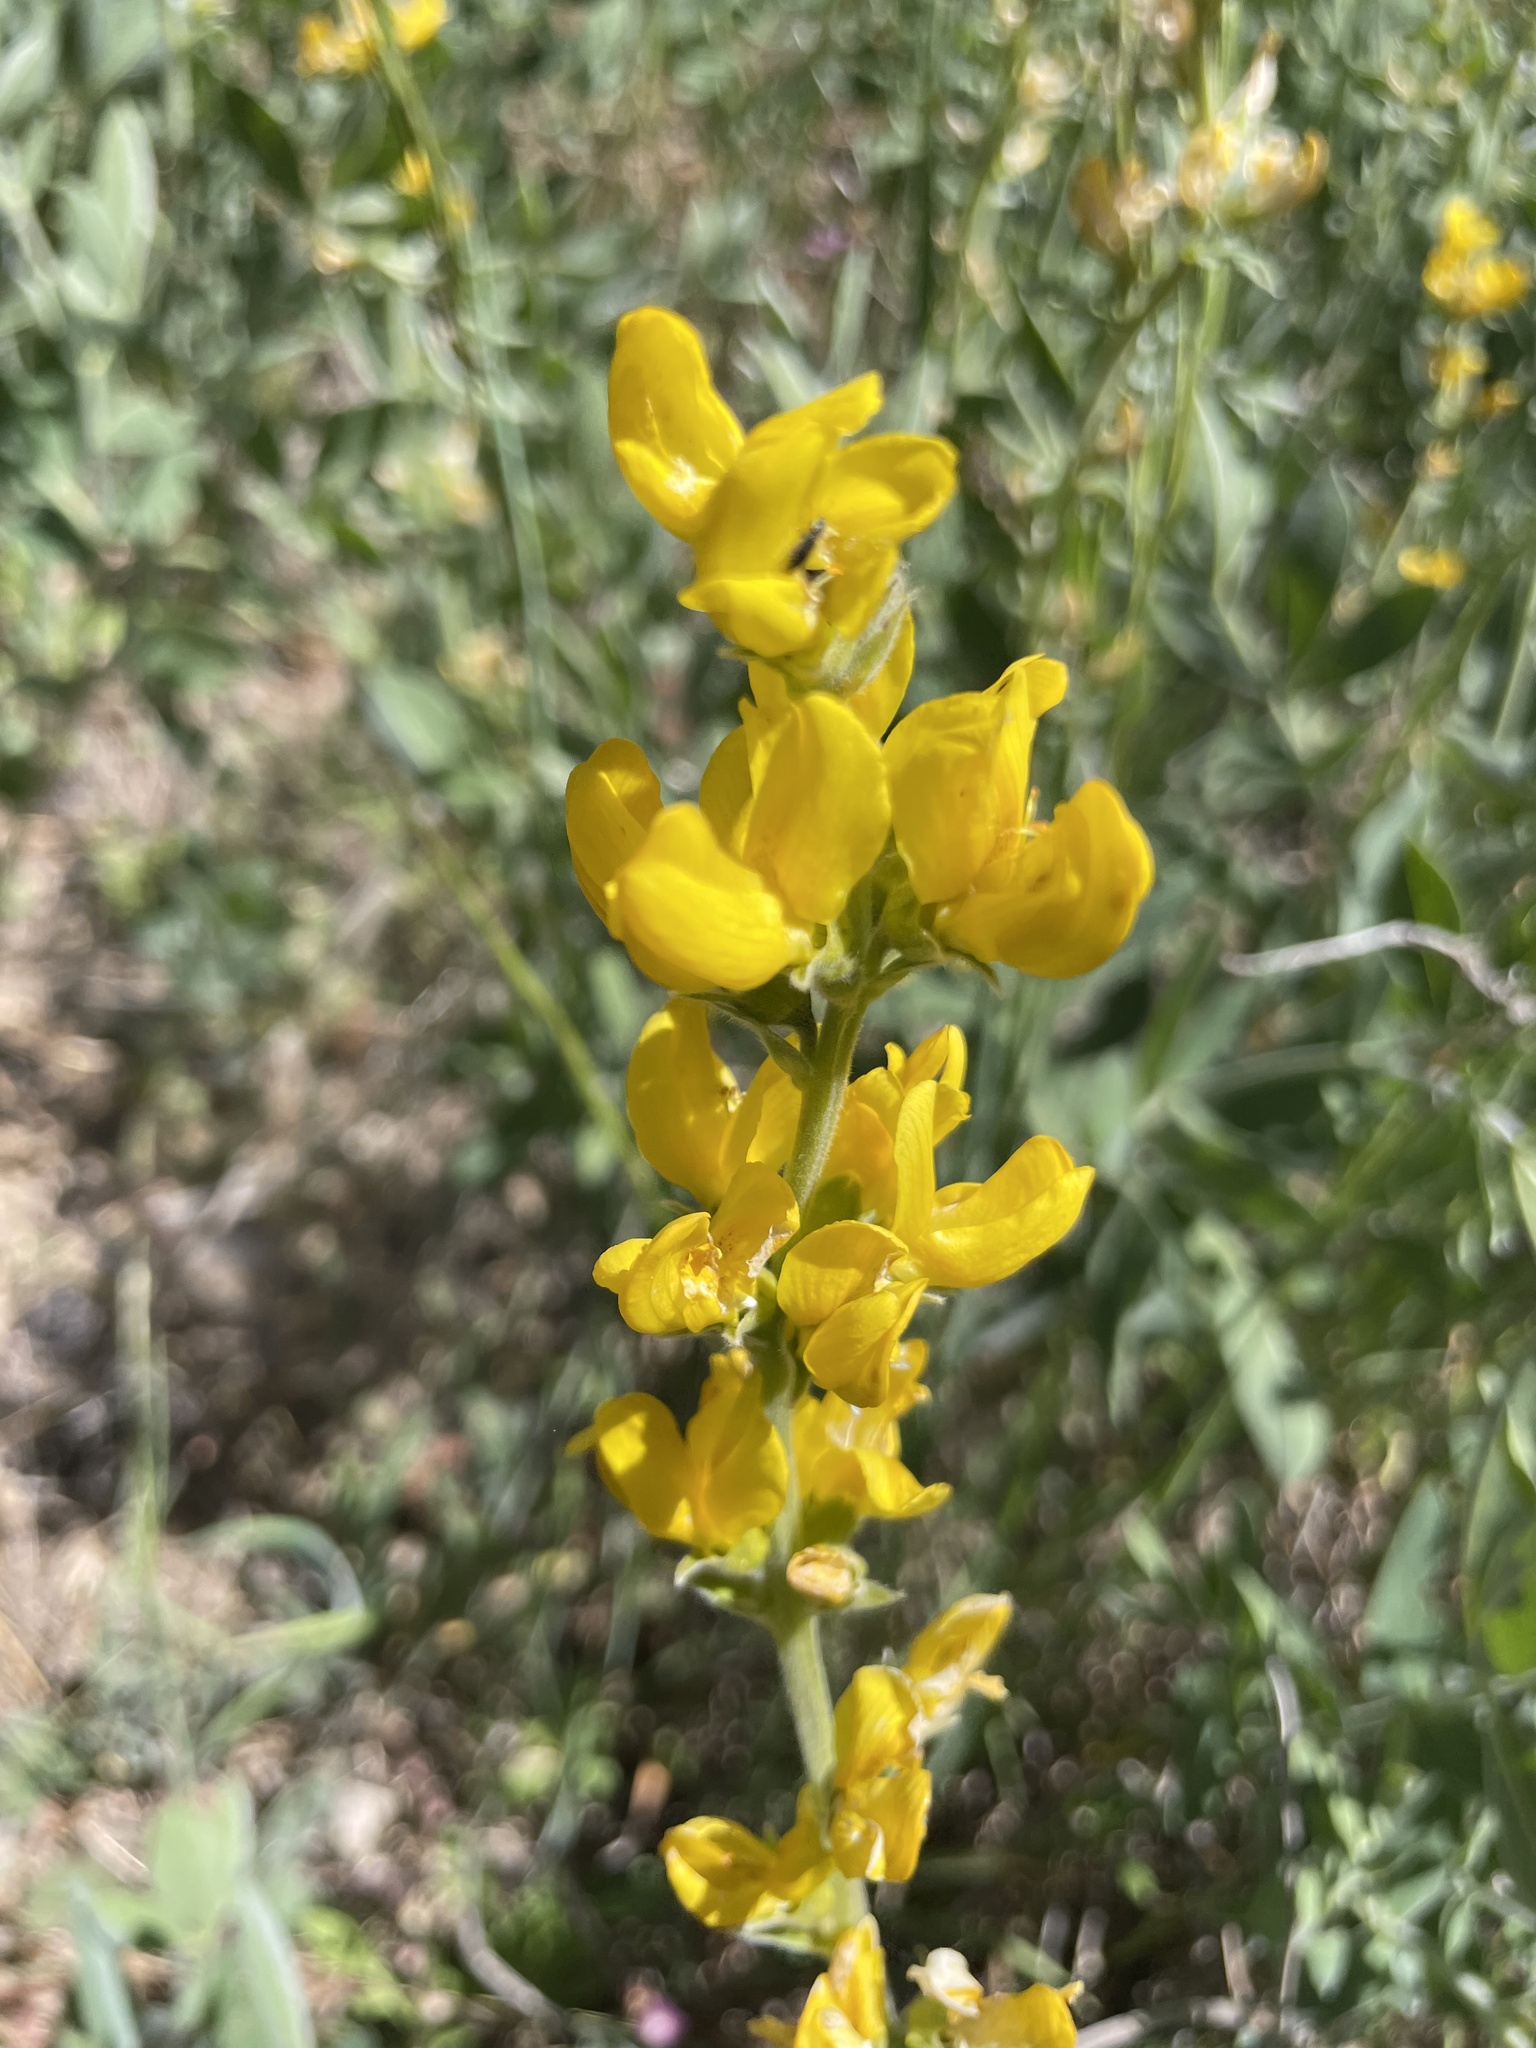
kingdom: Plantae
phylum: Tracheophyta
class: Magnoliopsida
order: Fabales
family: Fabaceae
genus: Thermopsis
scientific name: Thermopsis californica
